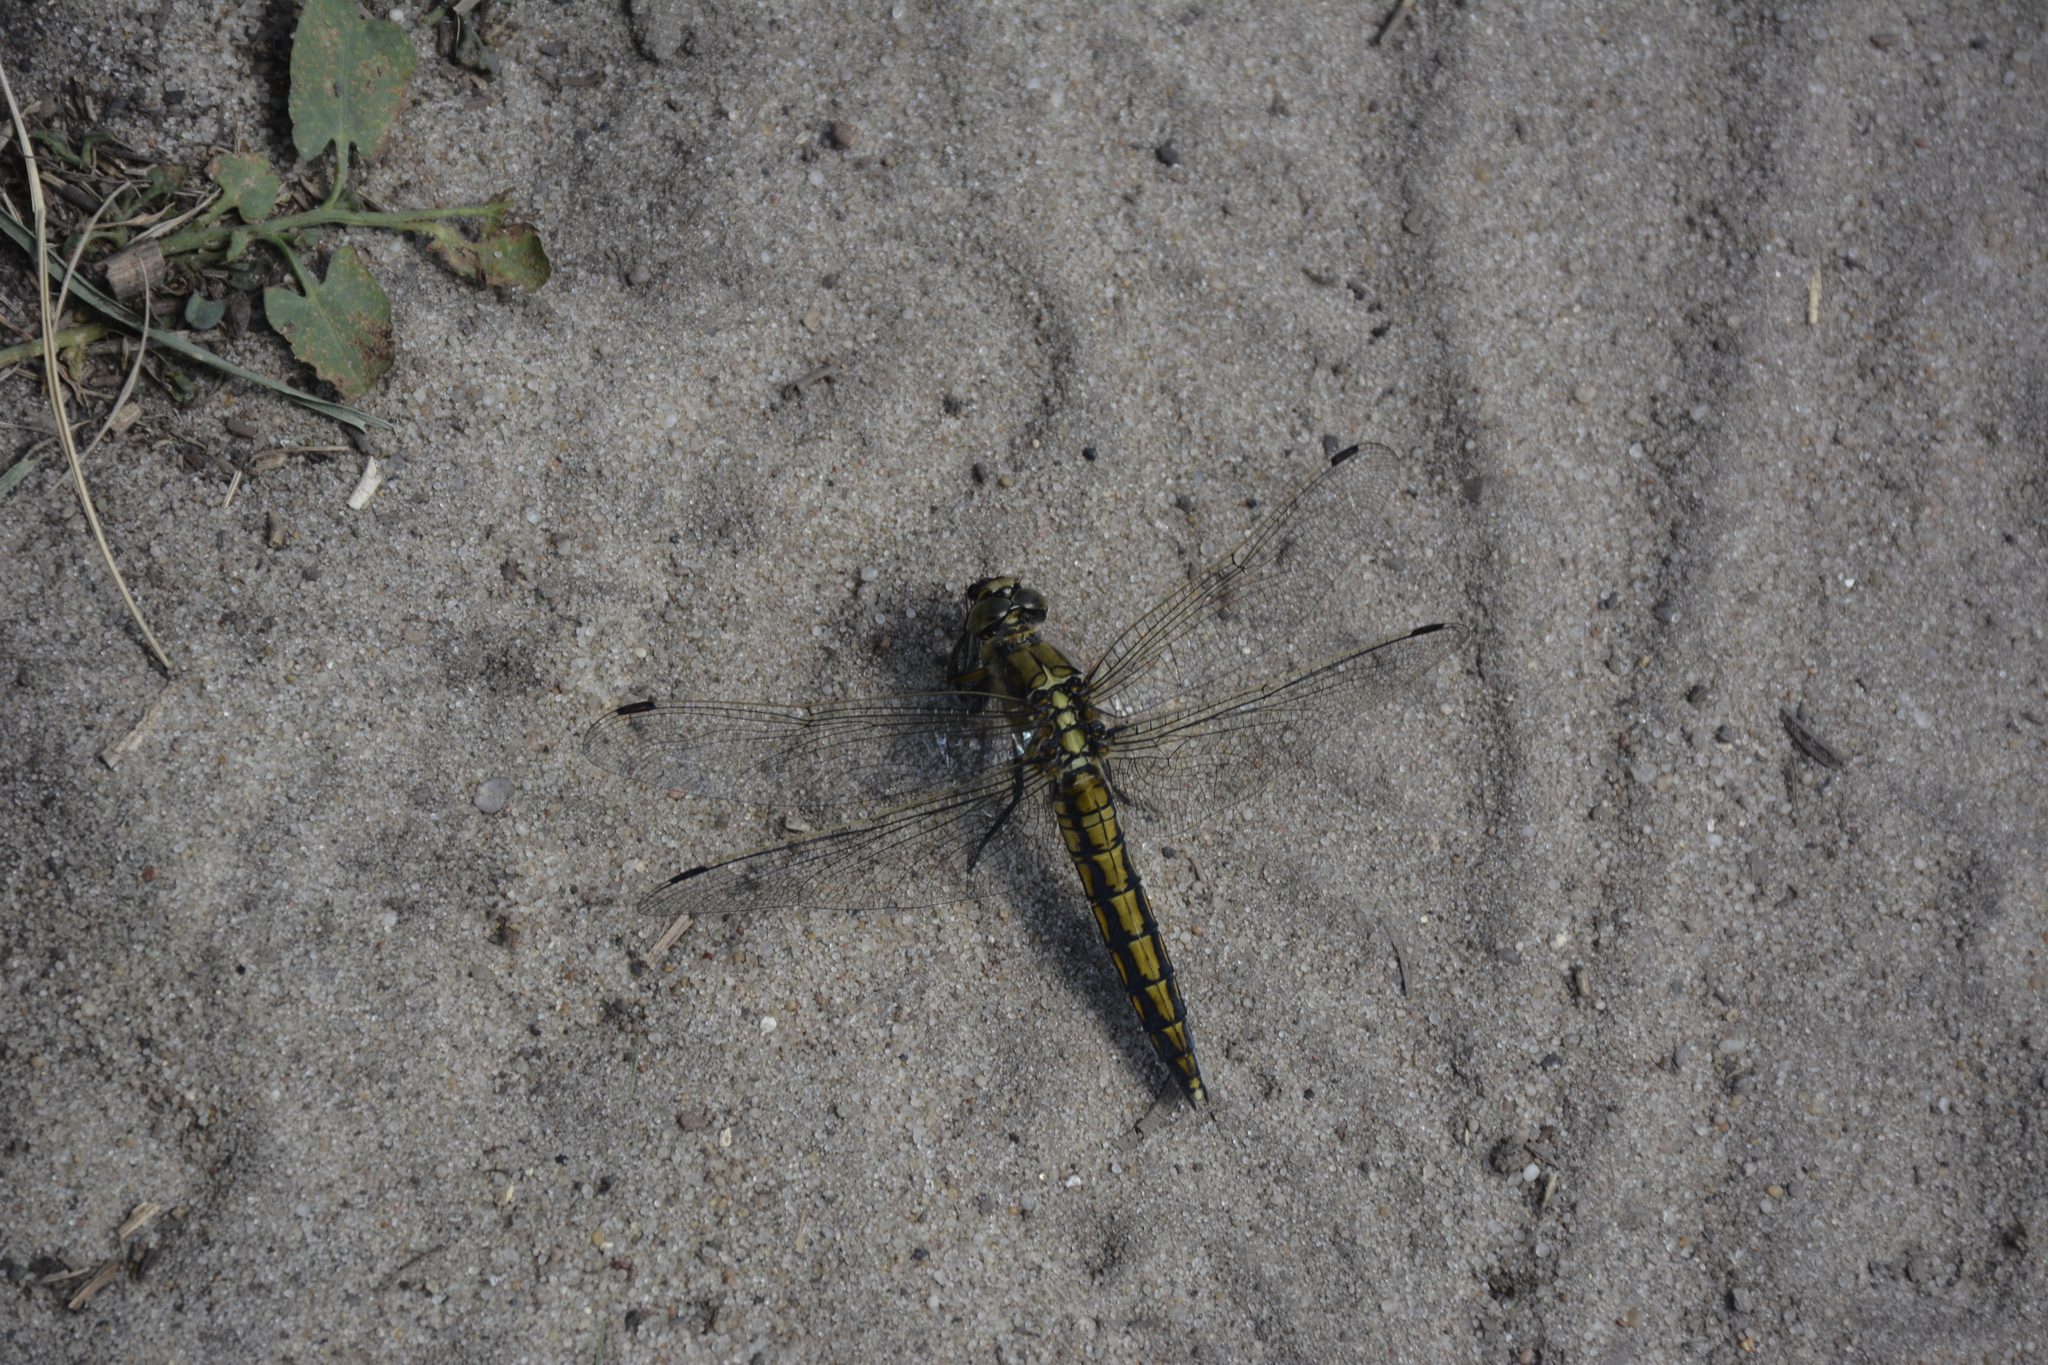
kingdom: Animalia
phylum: Arthropoda
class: Insecta
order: Odonata
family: Libellulidae
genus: Orthetrum
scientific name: Orthetrum cancellatum
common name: Black-tailed skimmer
